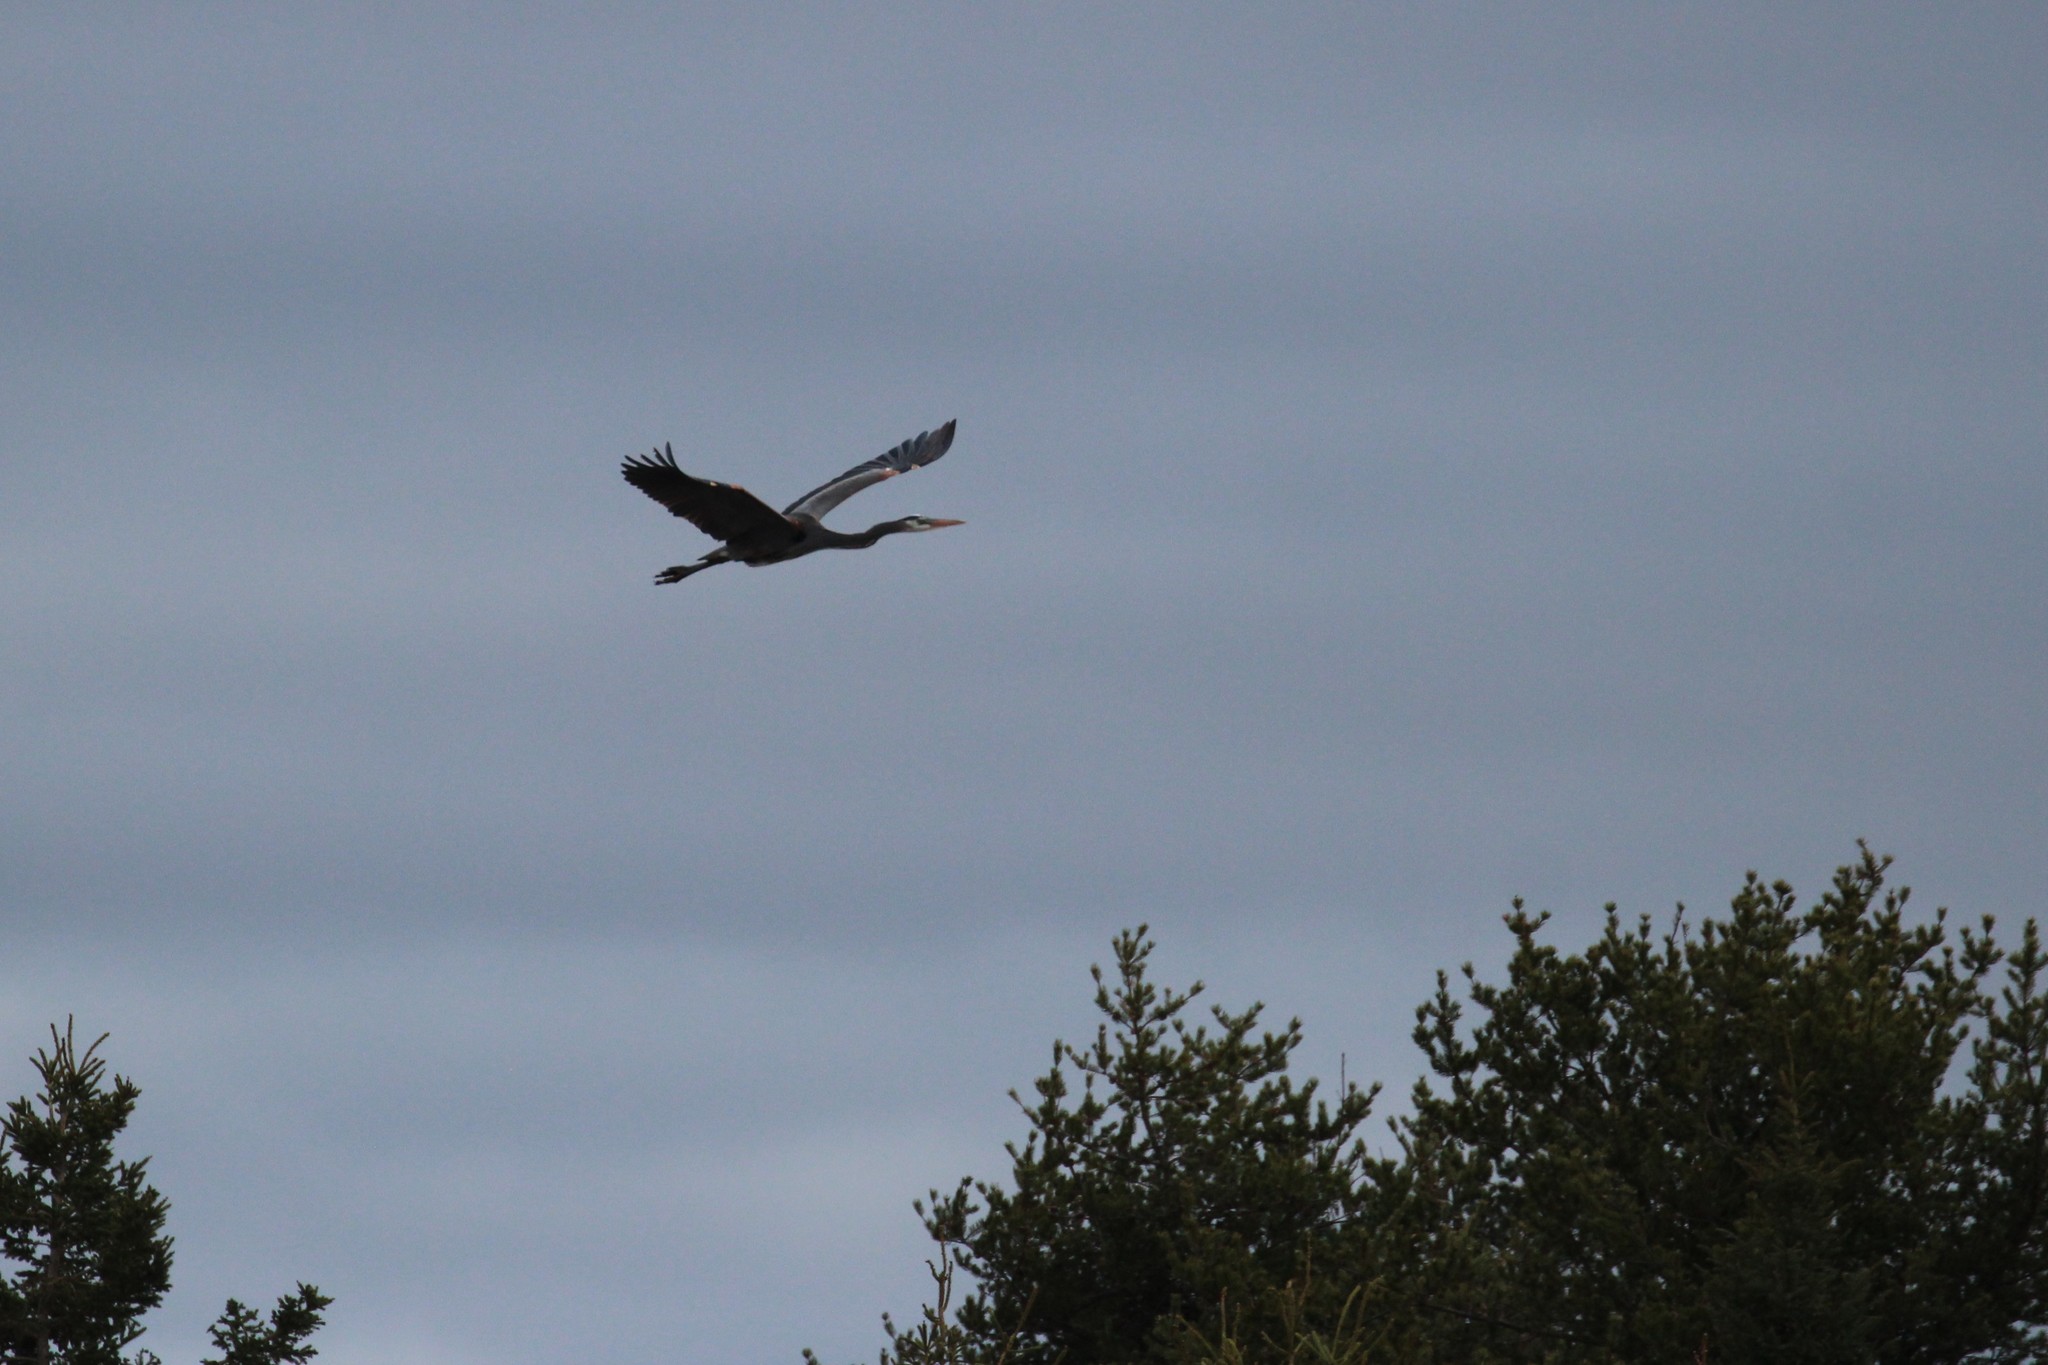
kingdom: Animalia
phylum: Chordata
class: Aves
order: Pelecaniformes
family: Ardeidae
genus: Ardea
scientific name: Ardea herodias
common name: Great blue heron
